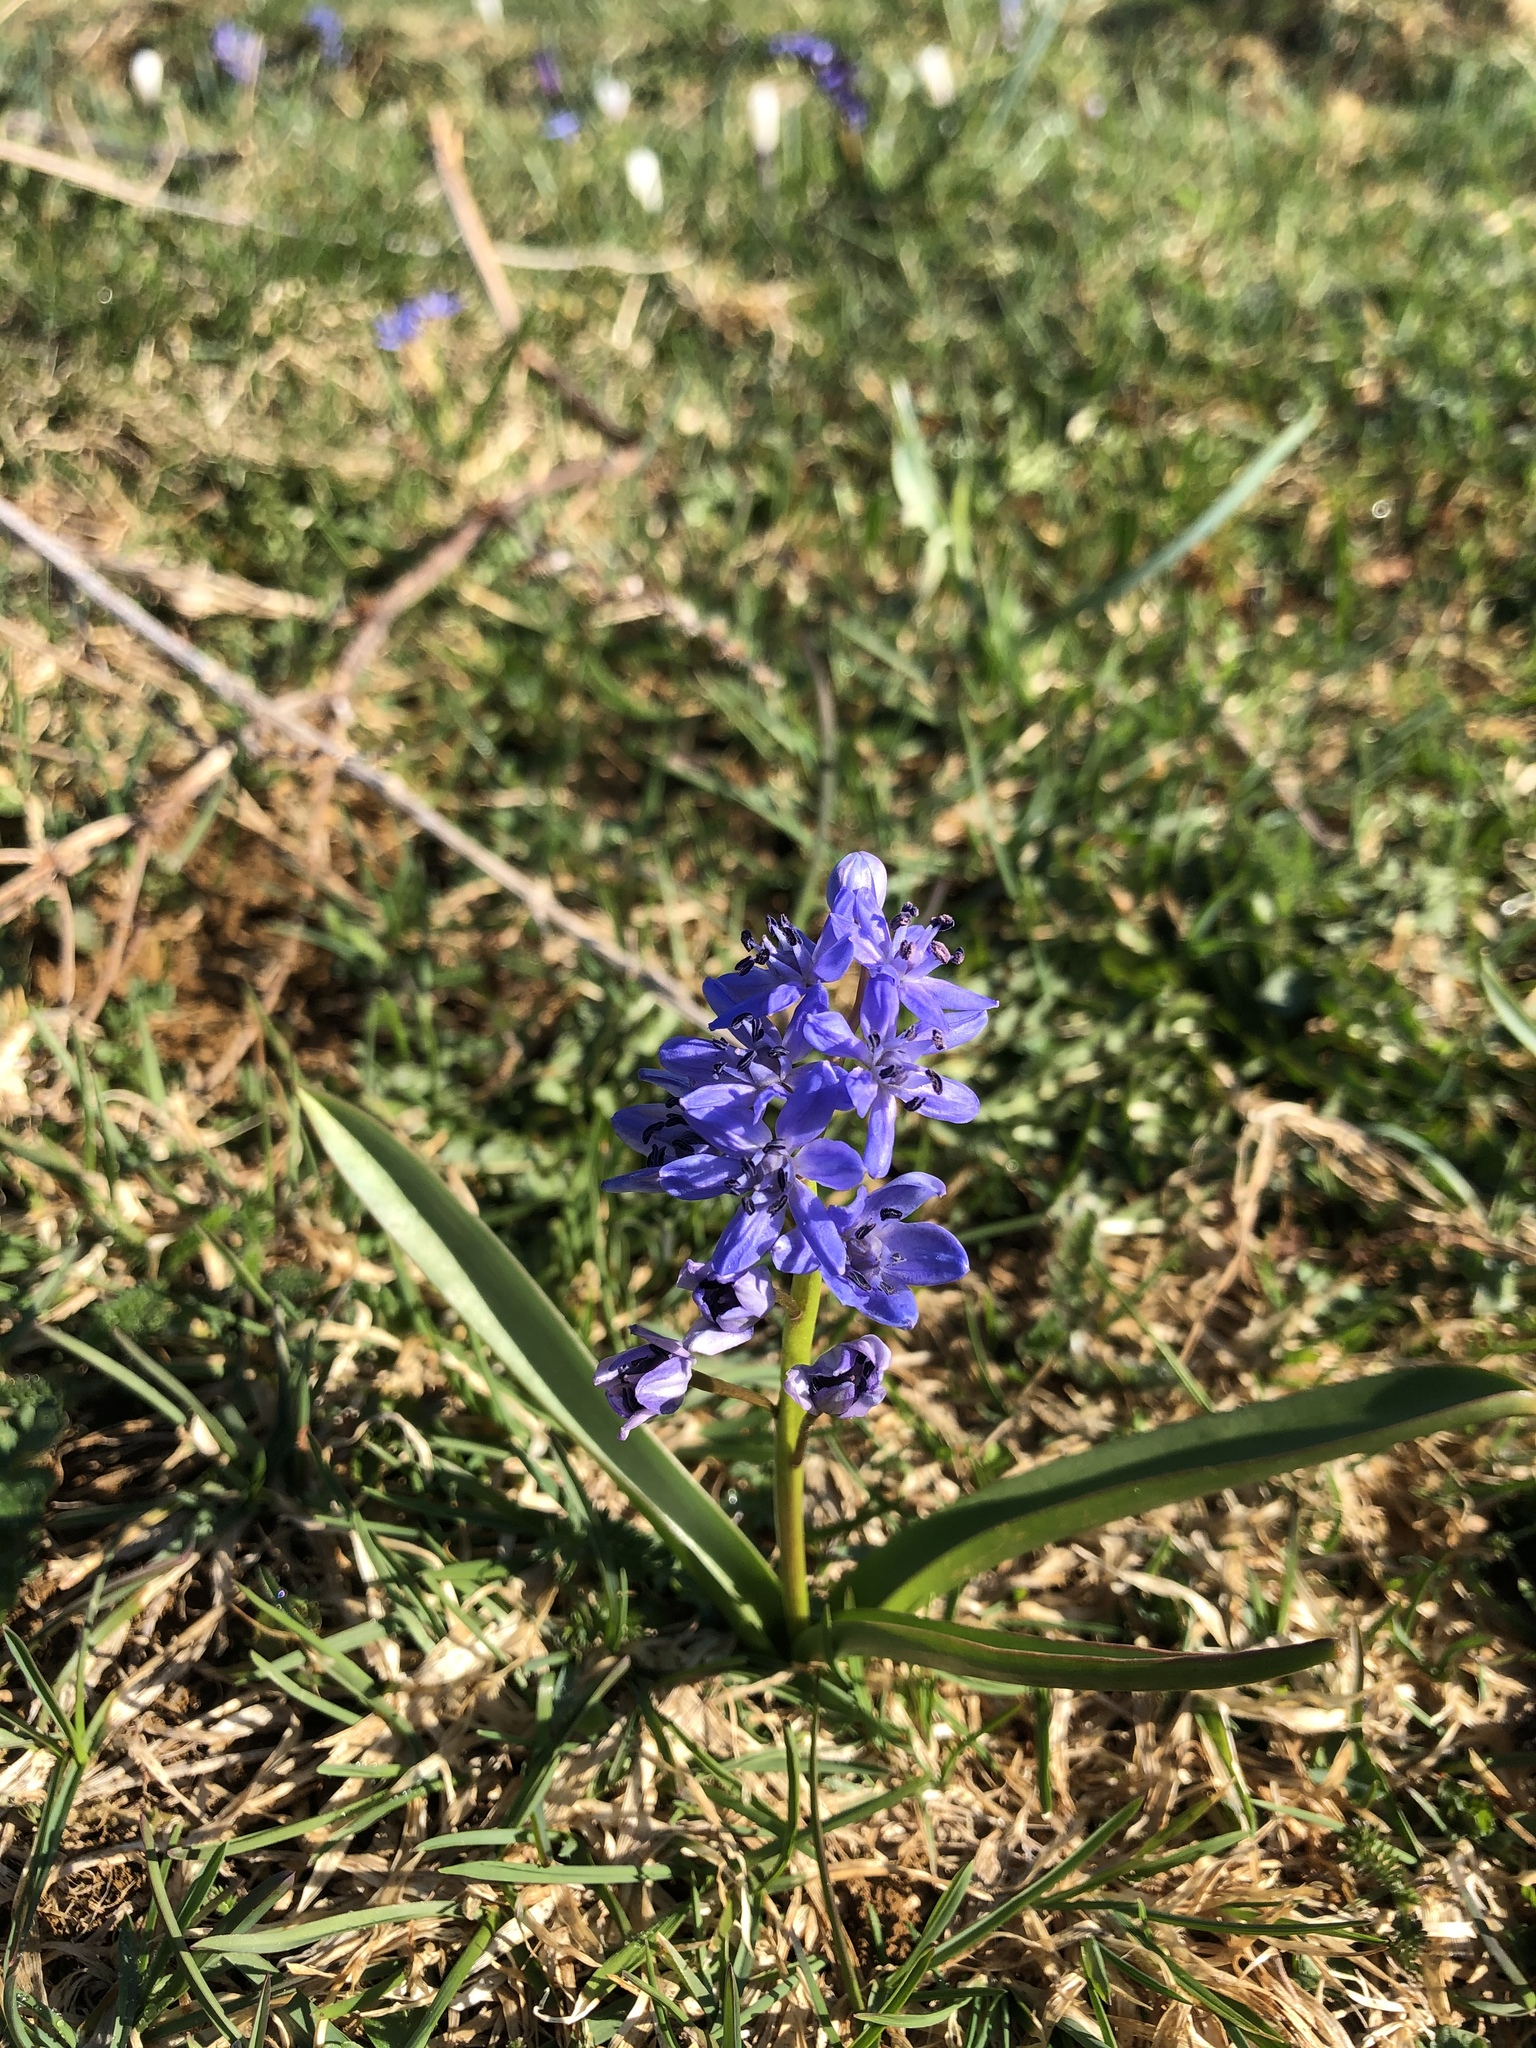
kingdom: Plantae
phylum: Tracheophyta
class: Liliopsida
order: Asparagales
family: Asparagaceae
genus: Scilla
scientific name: Scilla bifolia
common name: Alpine squill
